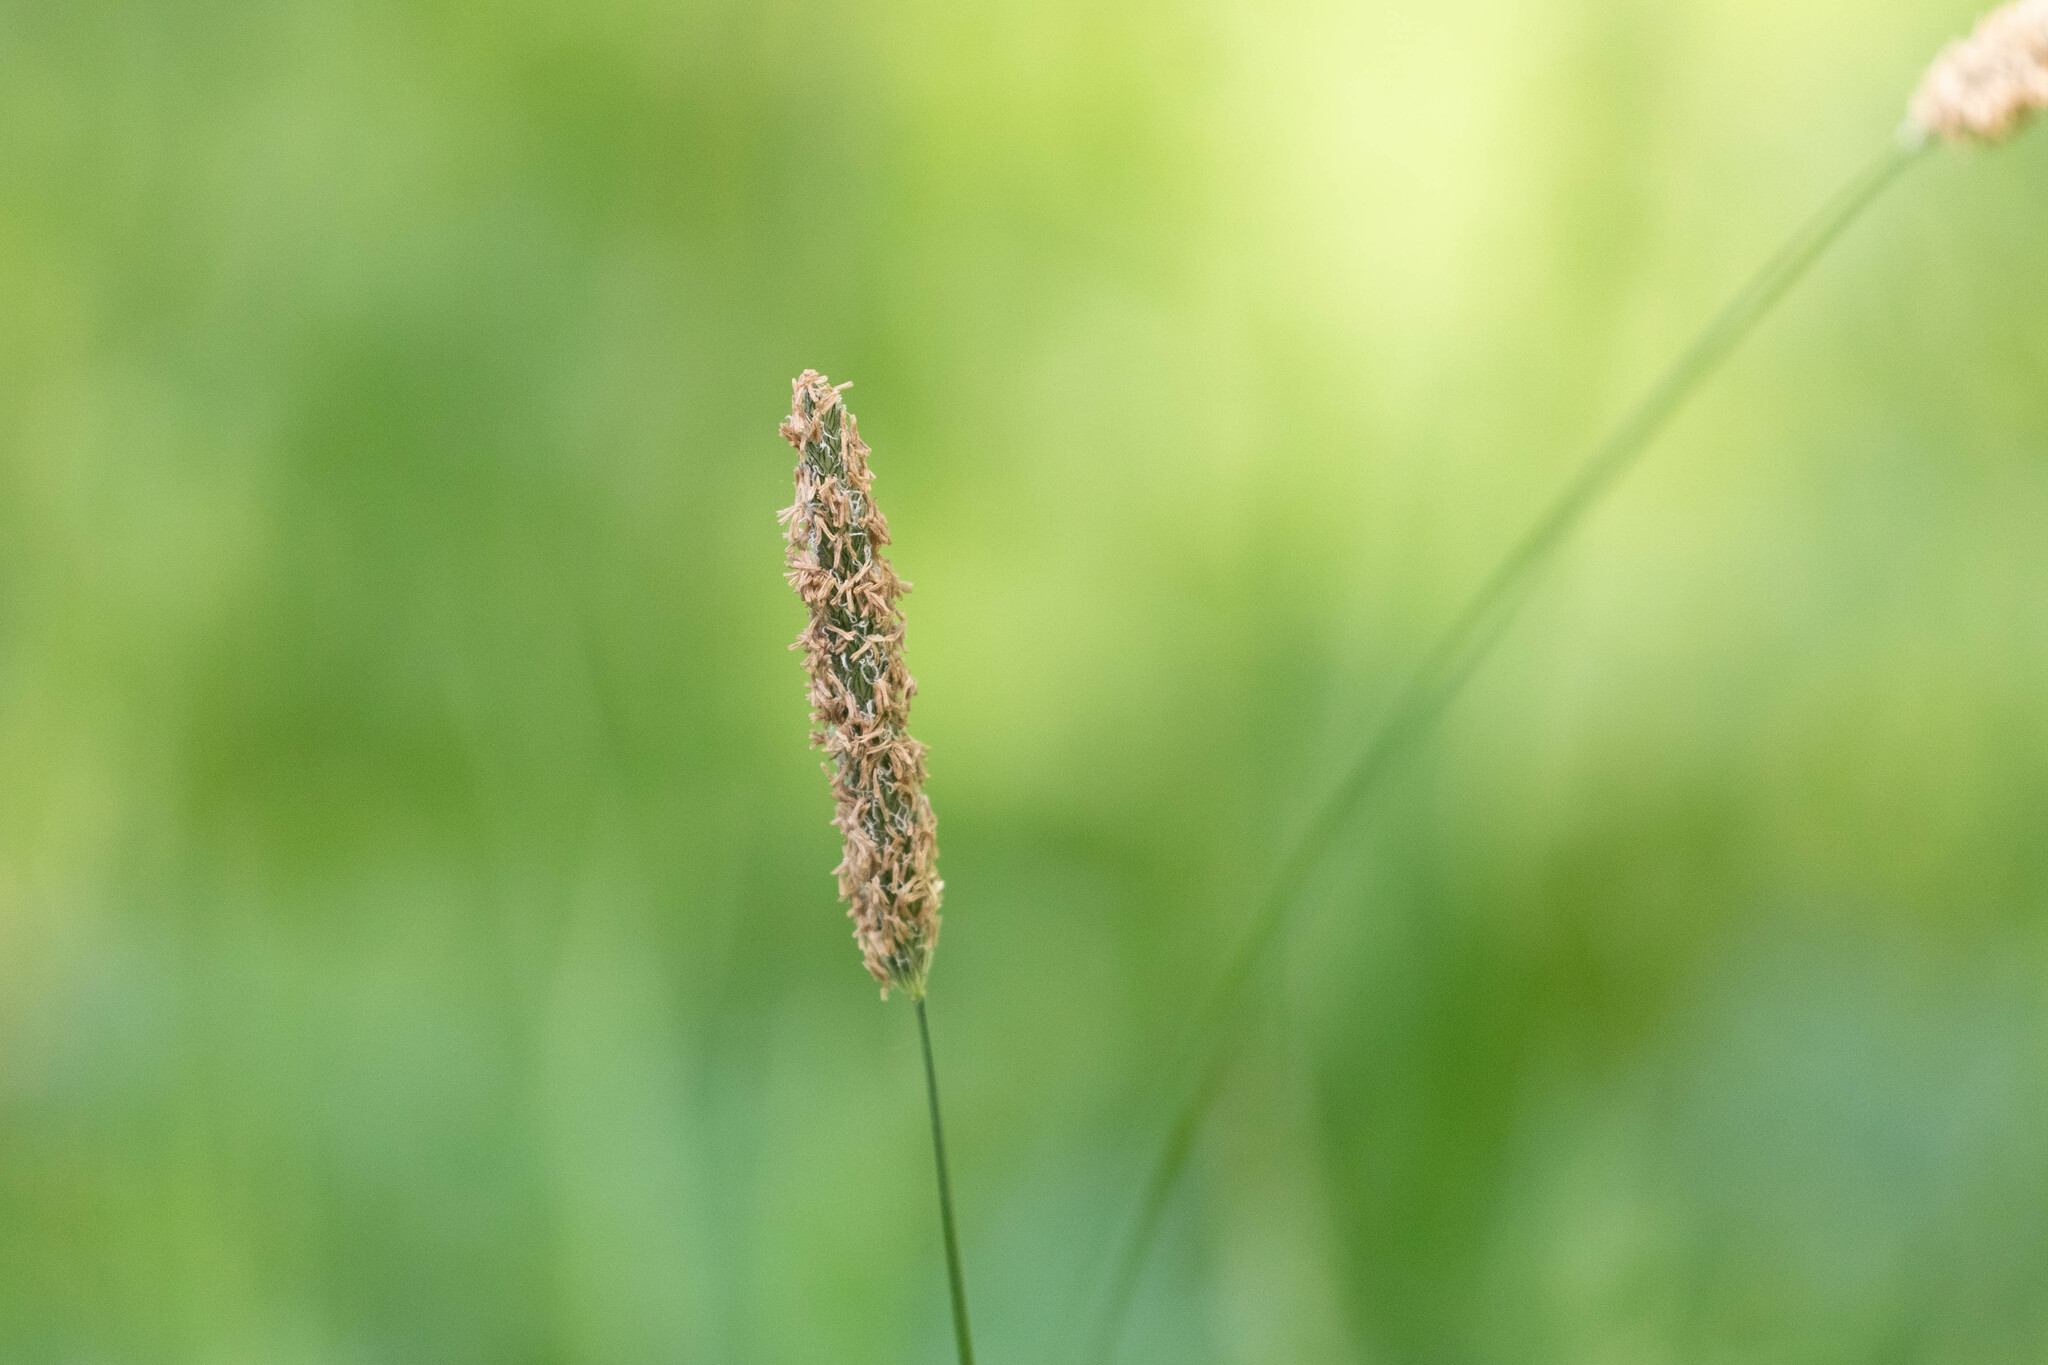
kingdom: Plantae
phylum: Tracheophyta
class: Liliopsida
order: Poales
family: Poaceae
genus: Alopecurus
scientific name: Alopecurus pratensis
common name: Meadow foxtail
